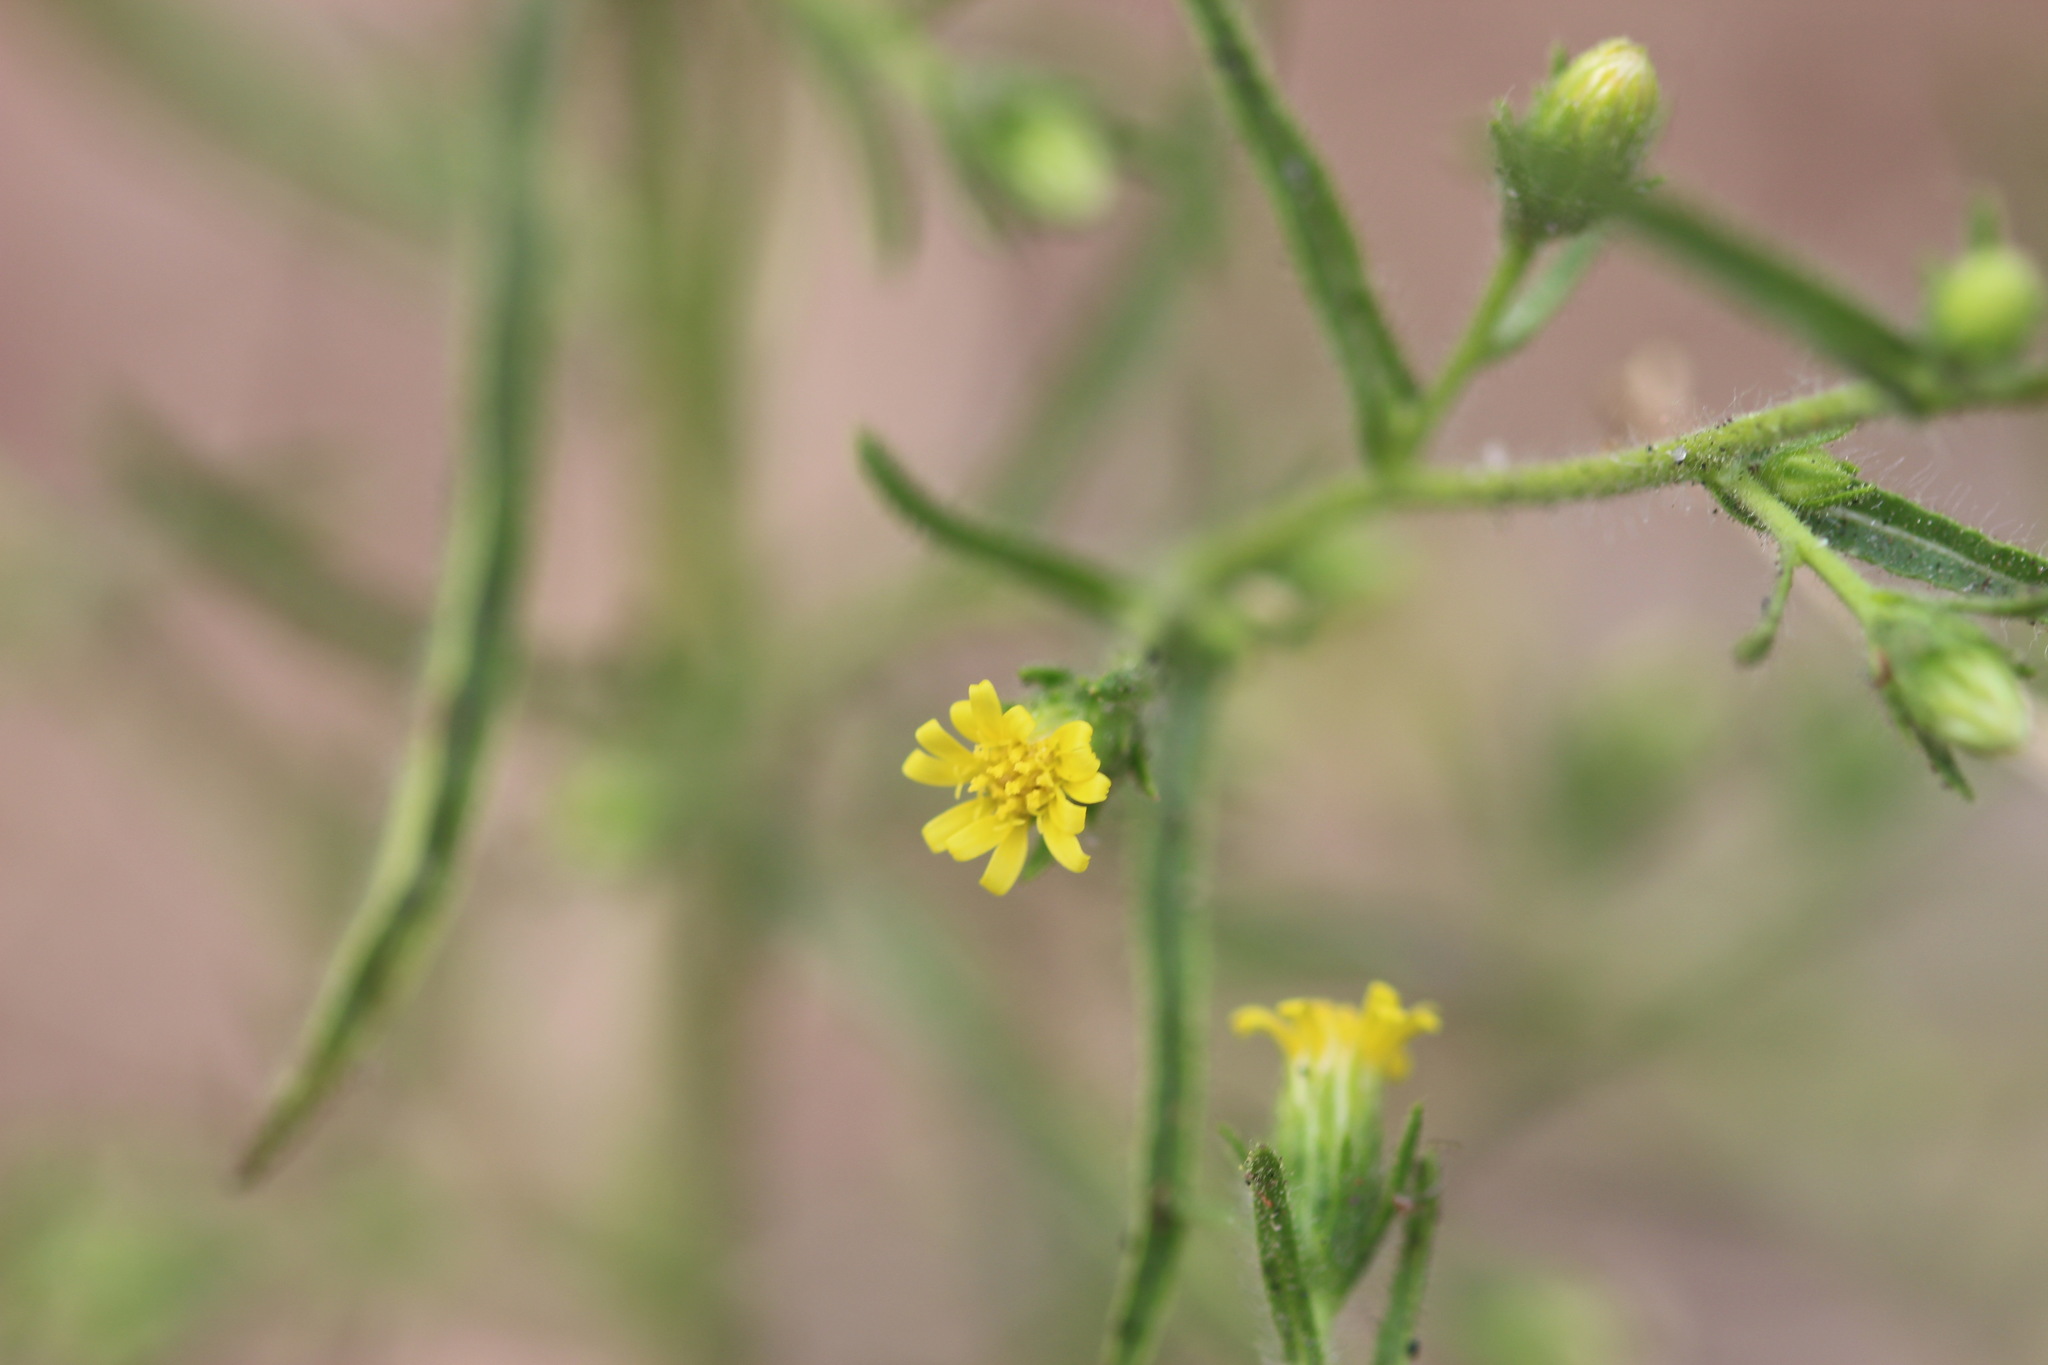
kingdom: Plantae
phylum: Tracheophyta
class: Magnoliopsida
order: Asterales
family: Asteraceae
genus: Dittrichia
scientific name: Dittrichia graveolens
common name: Stinking fleabane
